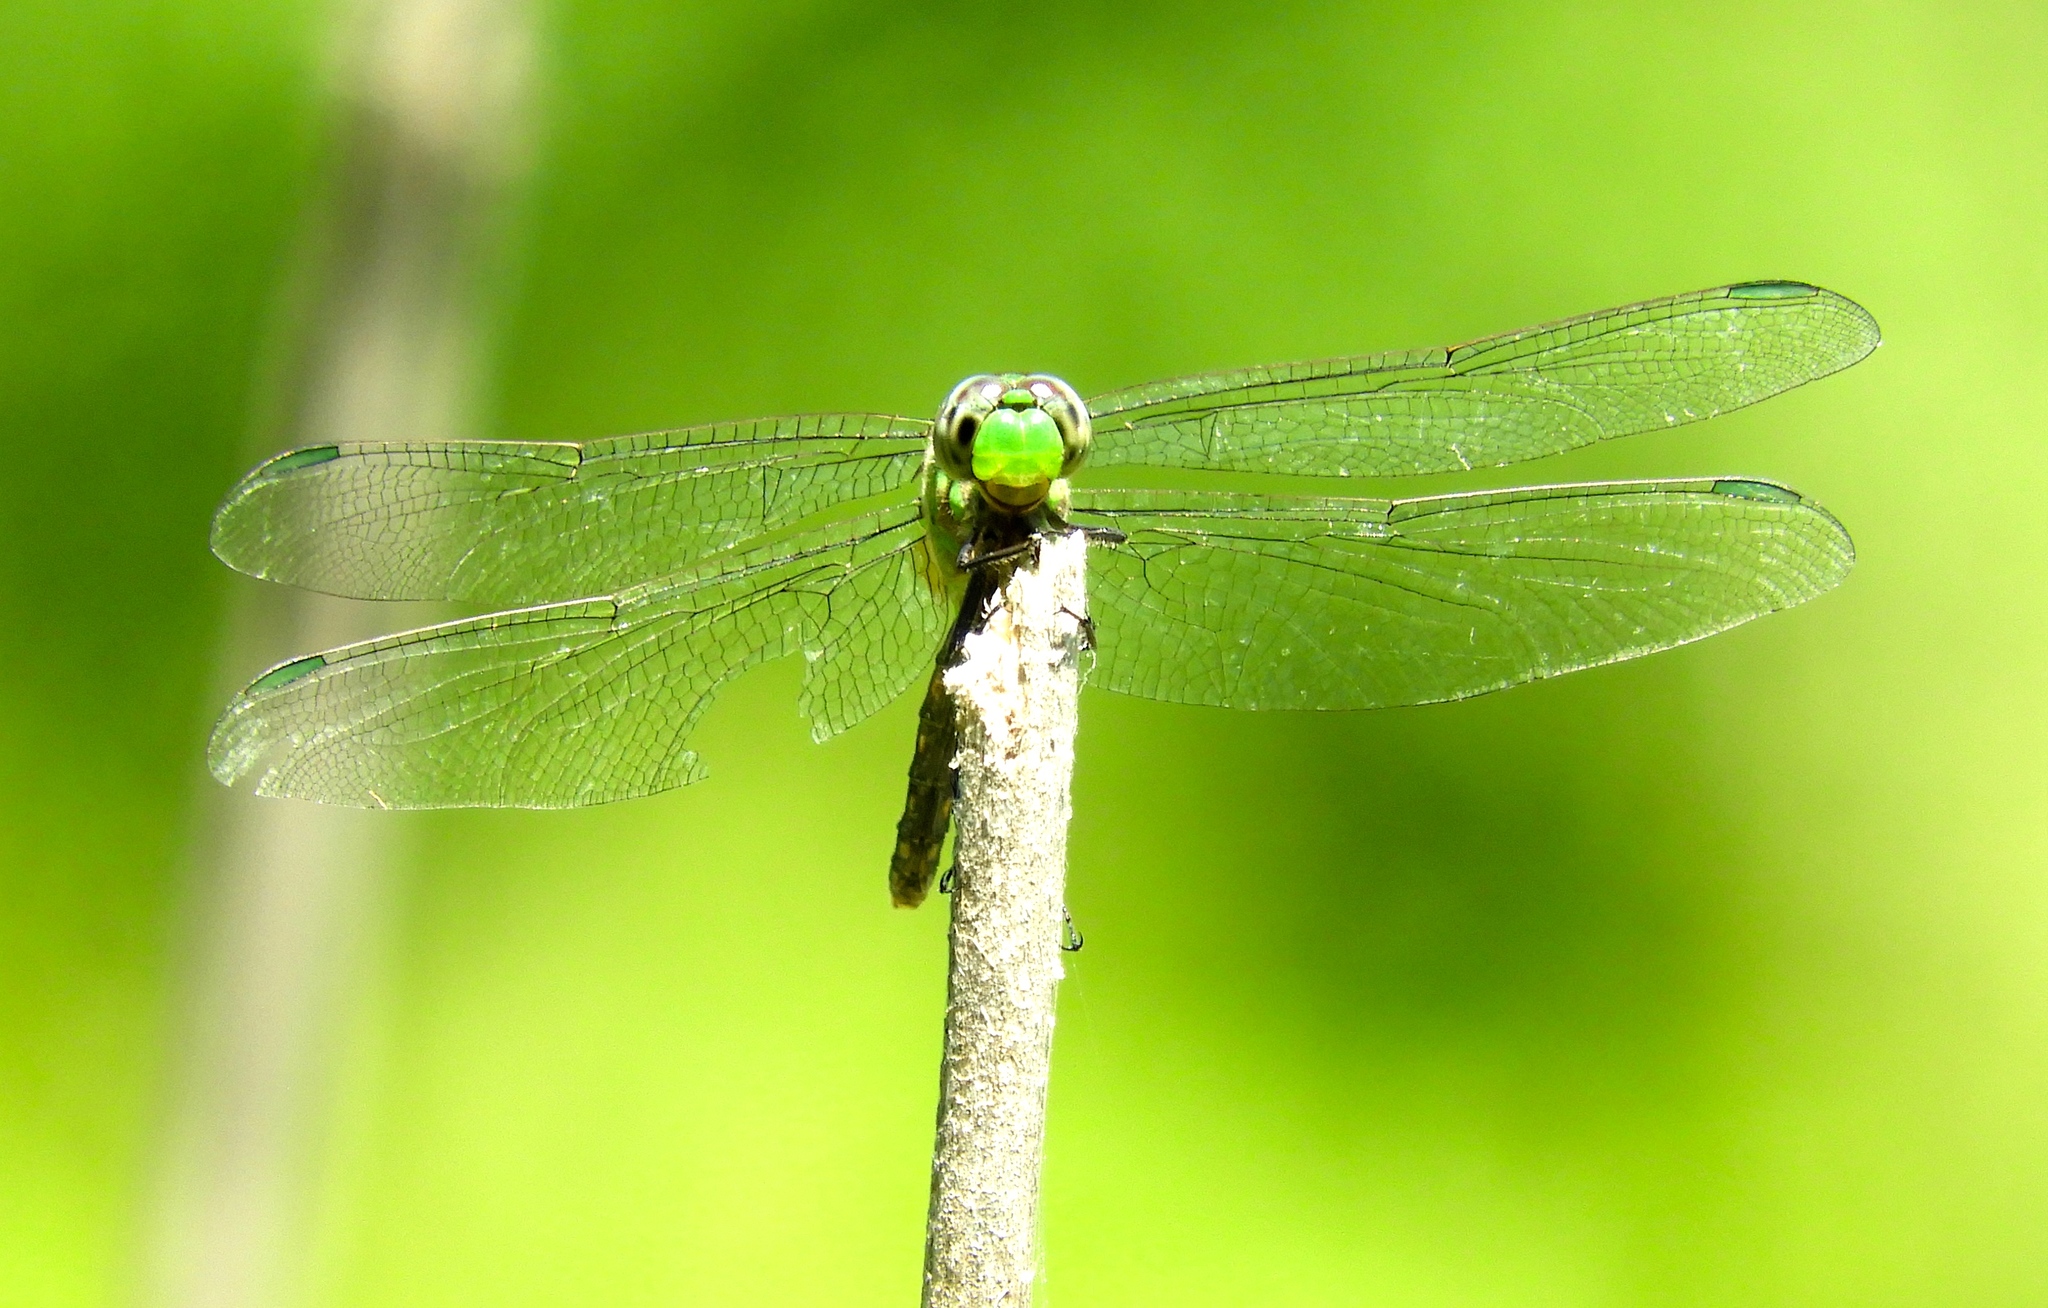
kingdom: Animalia
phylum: Arthropoda
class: Insecta
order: Odonata
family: Libellulidae
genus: Erythemis
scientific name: Erythemis vesiculosa
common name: Great pondhawk
